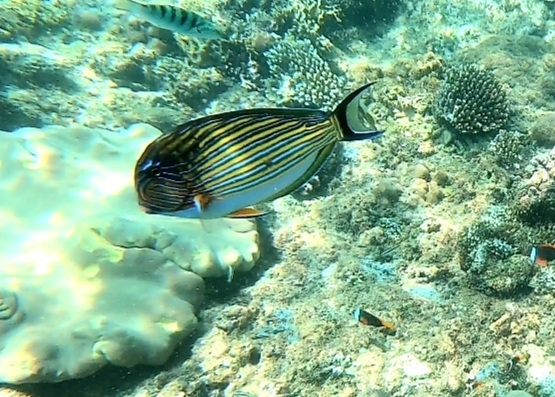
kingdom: Animalia
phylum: Chordata
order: Perciformes
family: Acanthuridae
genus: Acanthurus
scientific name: Acanthurus lineatus
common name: Striped surgeonfish
